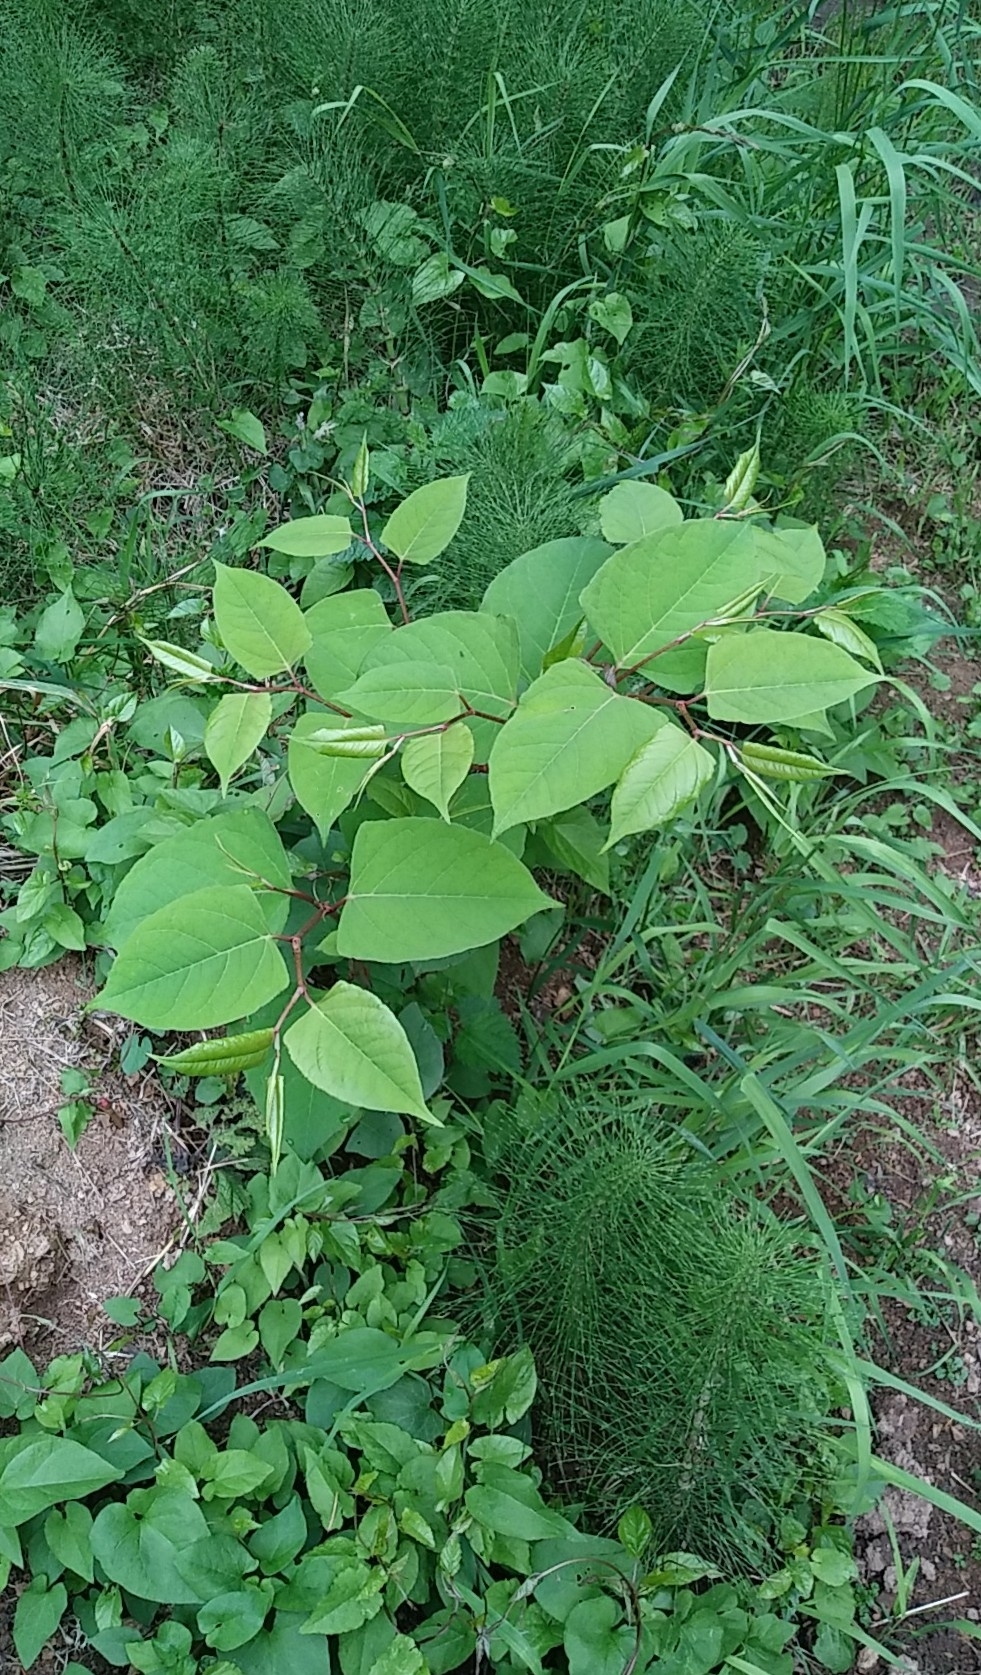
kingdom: Plantae
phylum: Tracheophyta
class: Magnoliopsida
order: Caryophyllales
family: Polygonaceae
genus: Reynoutria
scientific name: Reynoutria japonica
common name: Japanese knotweed
